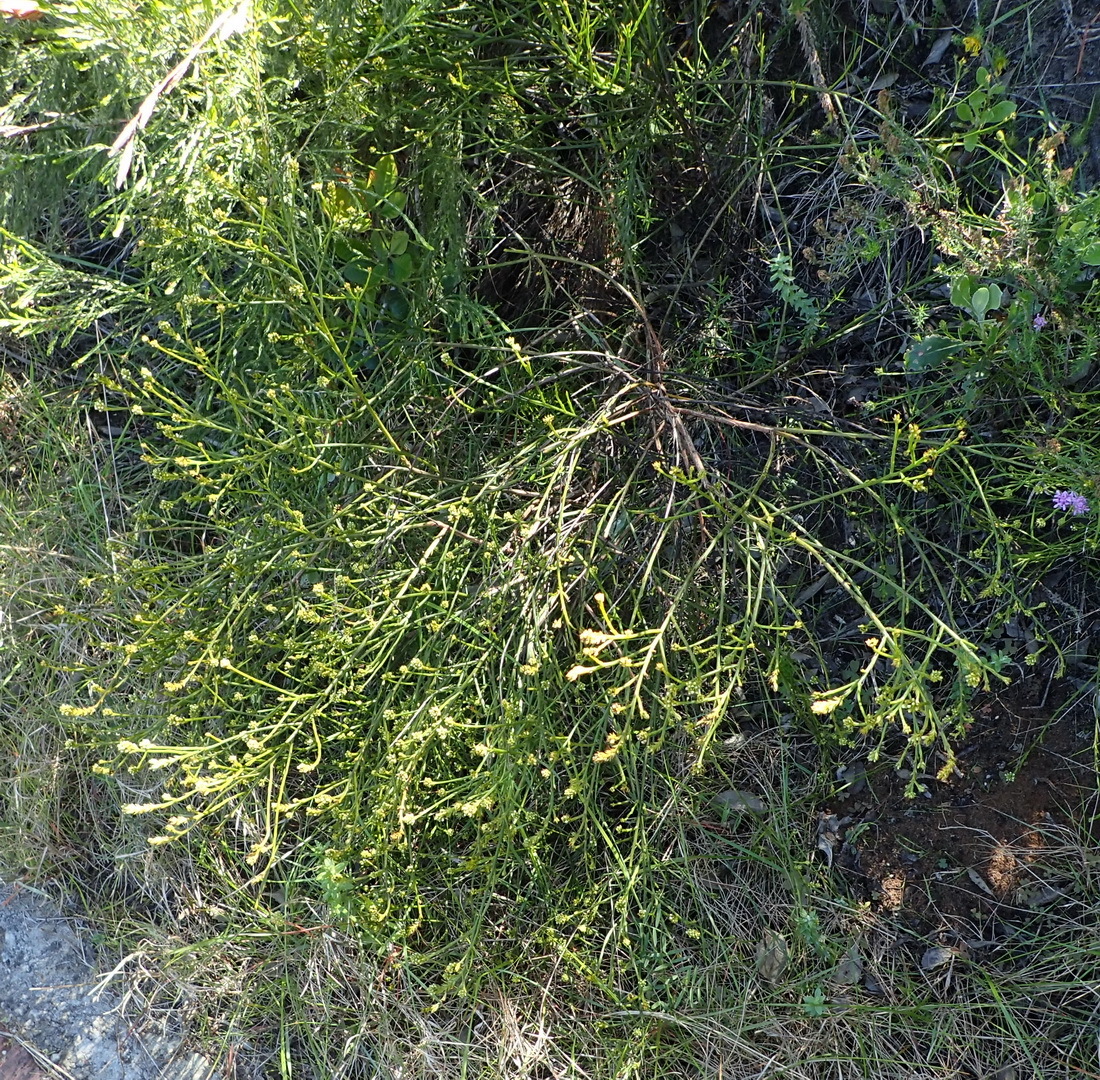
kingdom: Plantae
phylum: Tracheophyta
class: Magnoliopsida
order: Santalales
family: Thesiaceae
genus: Thesium
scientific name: Thesium spicatum
